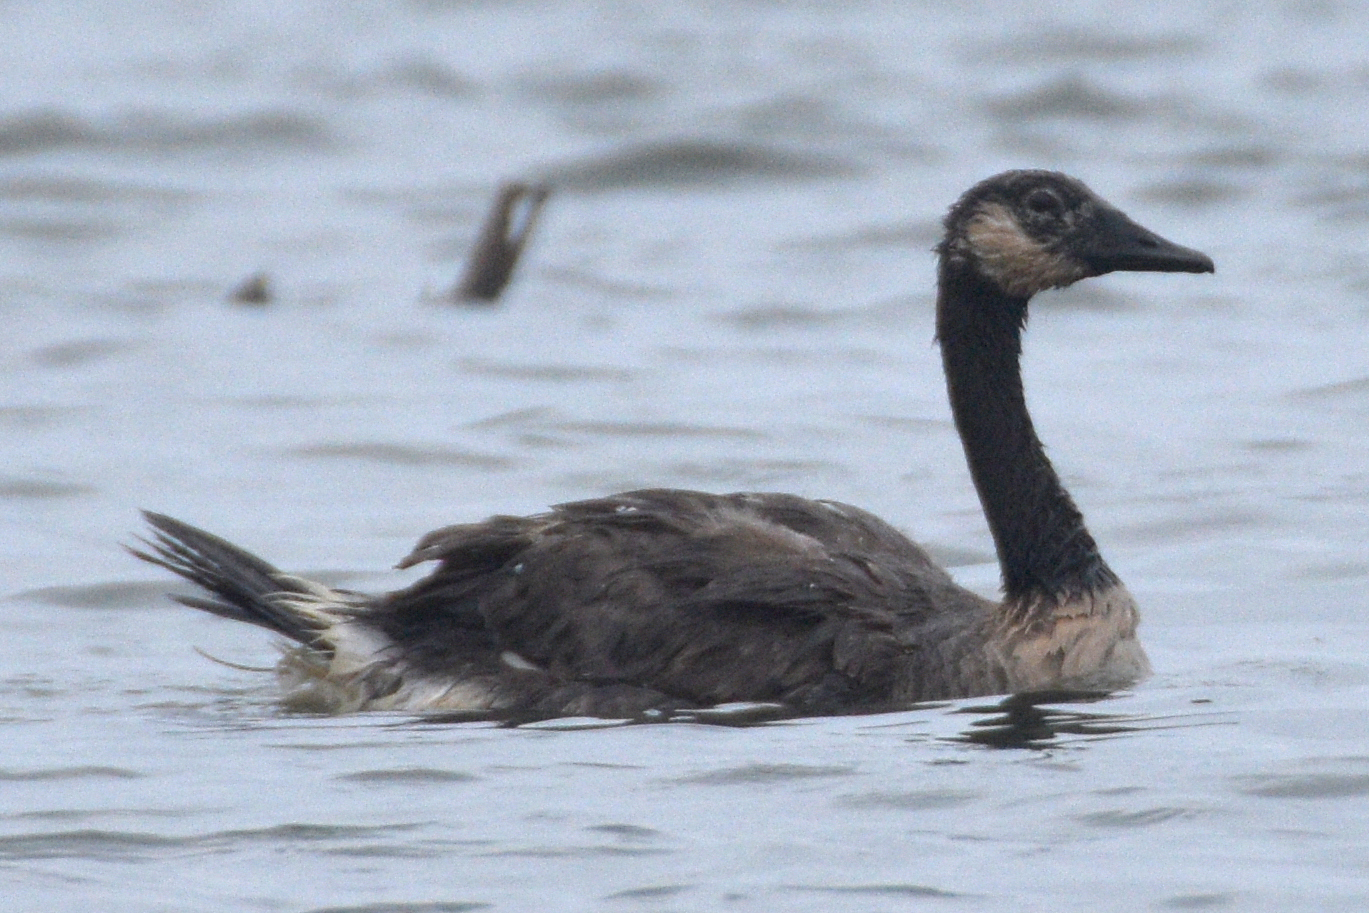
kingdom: Animalia
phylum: Chordata
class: Aves
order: Anseriformes
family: Anatidae
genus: Branta
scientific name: Branta canadensis
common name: Canada goose
